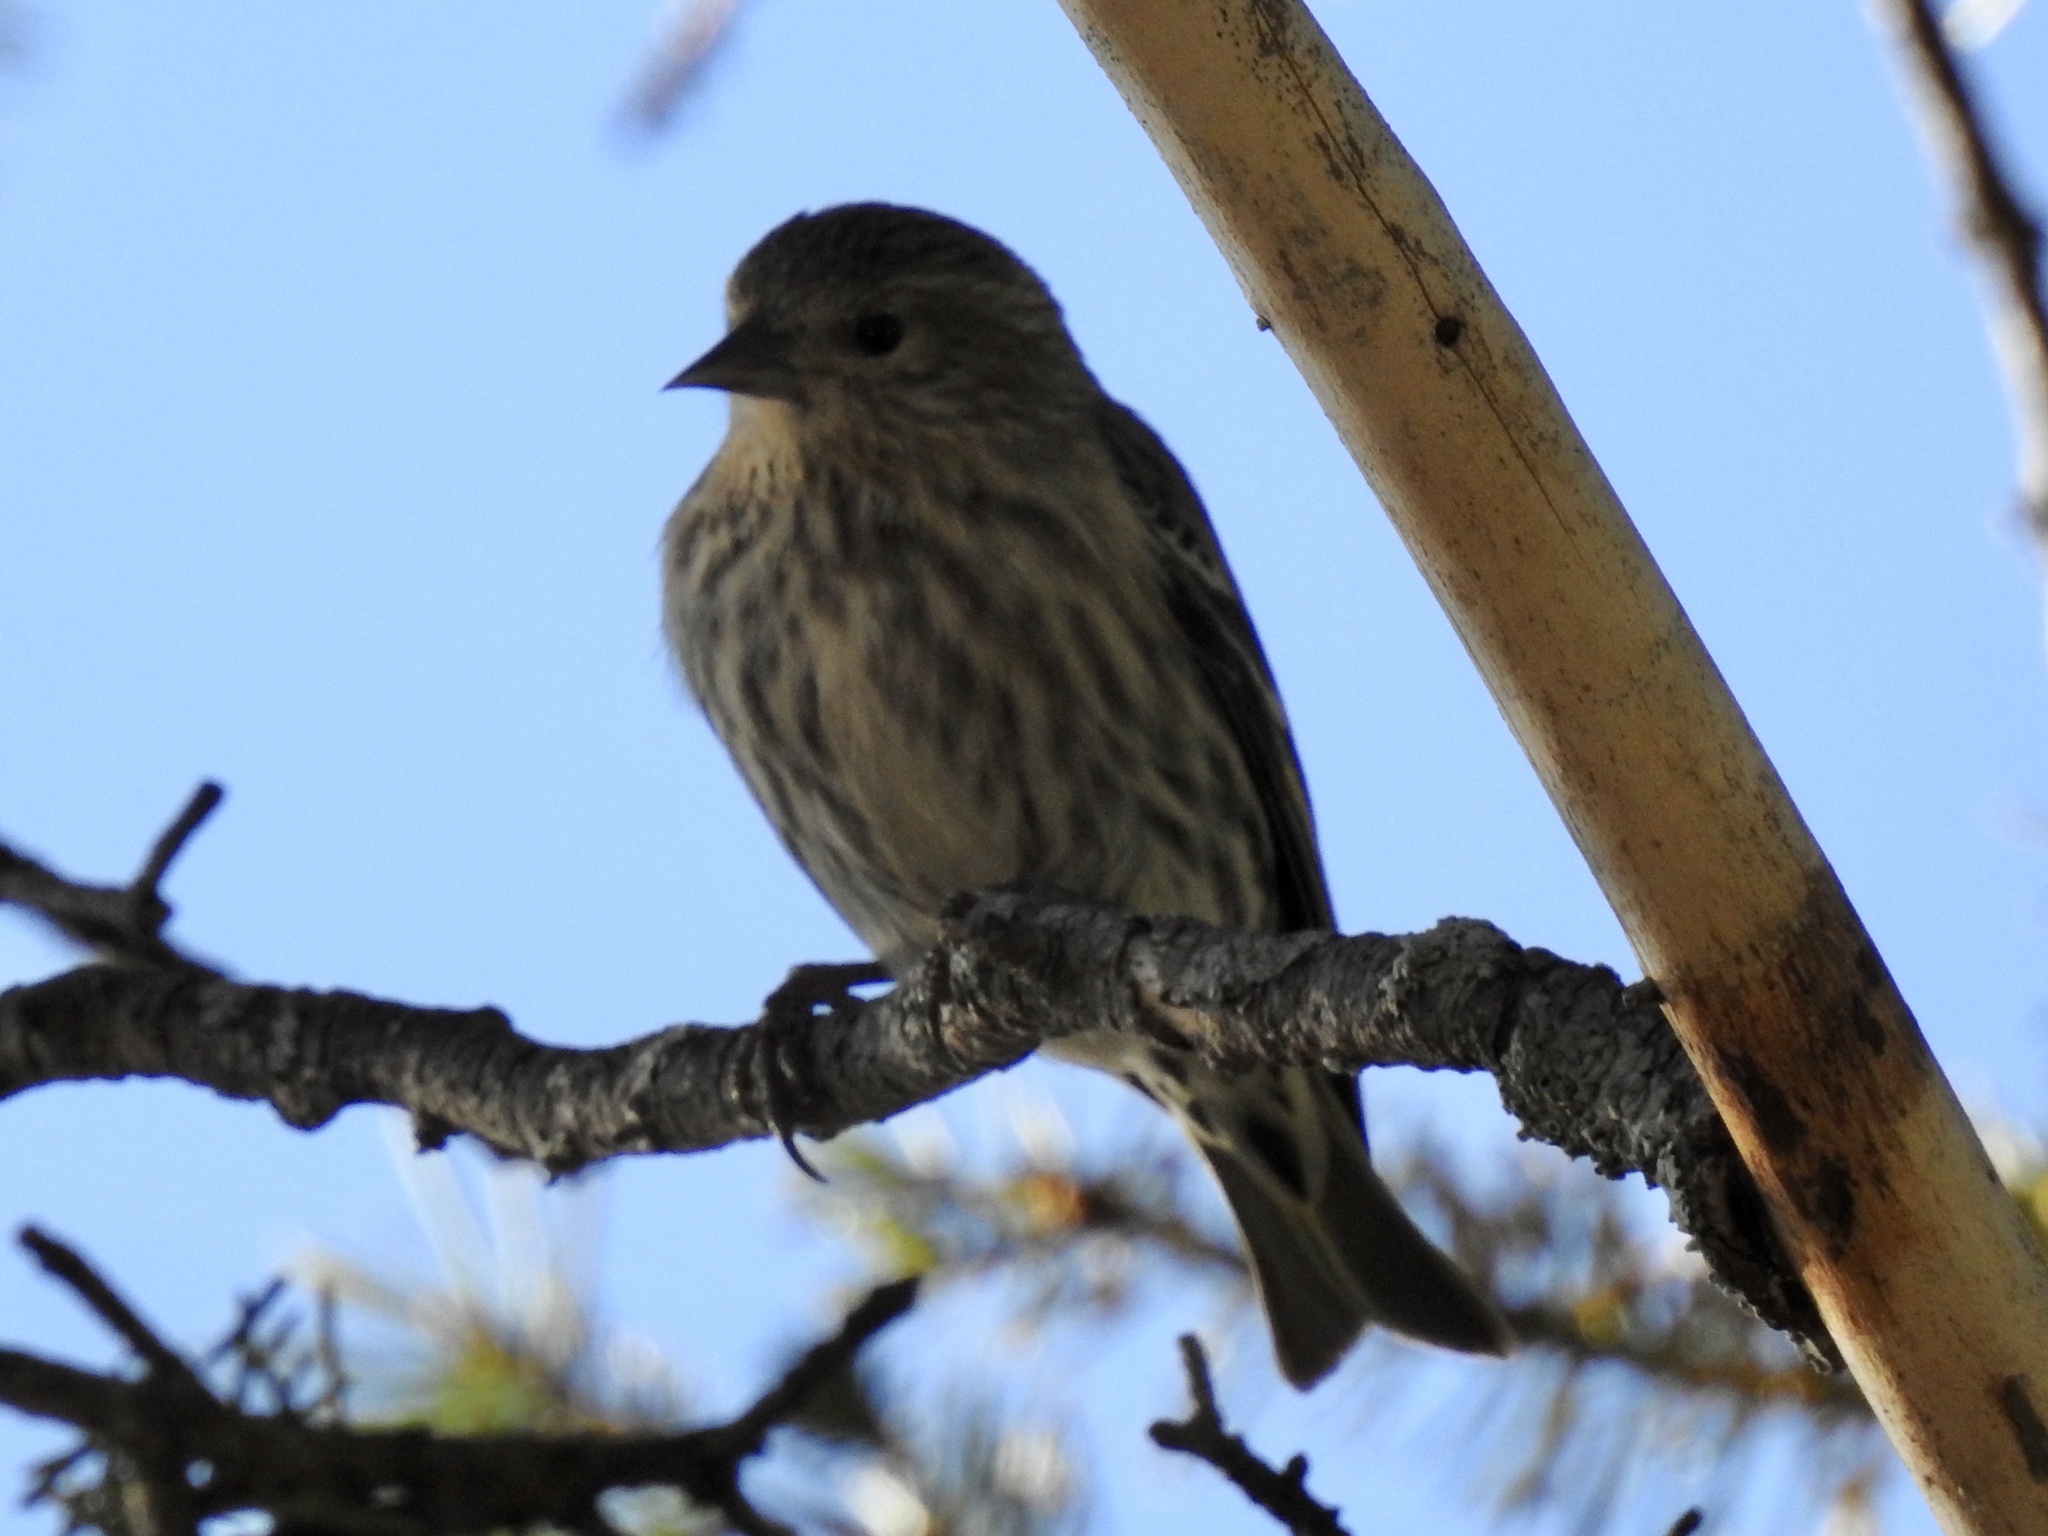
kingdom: Animalia
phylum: Chordata
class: Aves
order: Passeriformes
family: Fringillidae
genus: Spinus
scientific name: Spinus pinus
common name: Pine siskin
